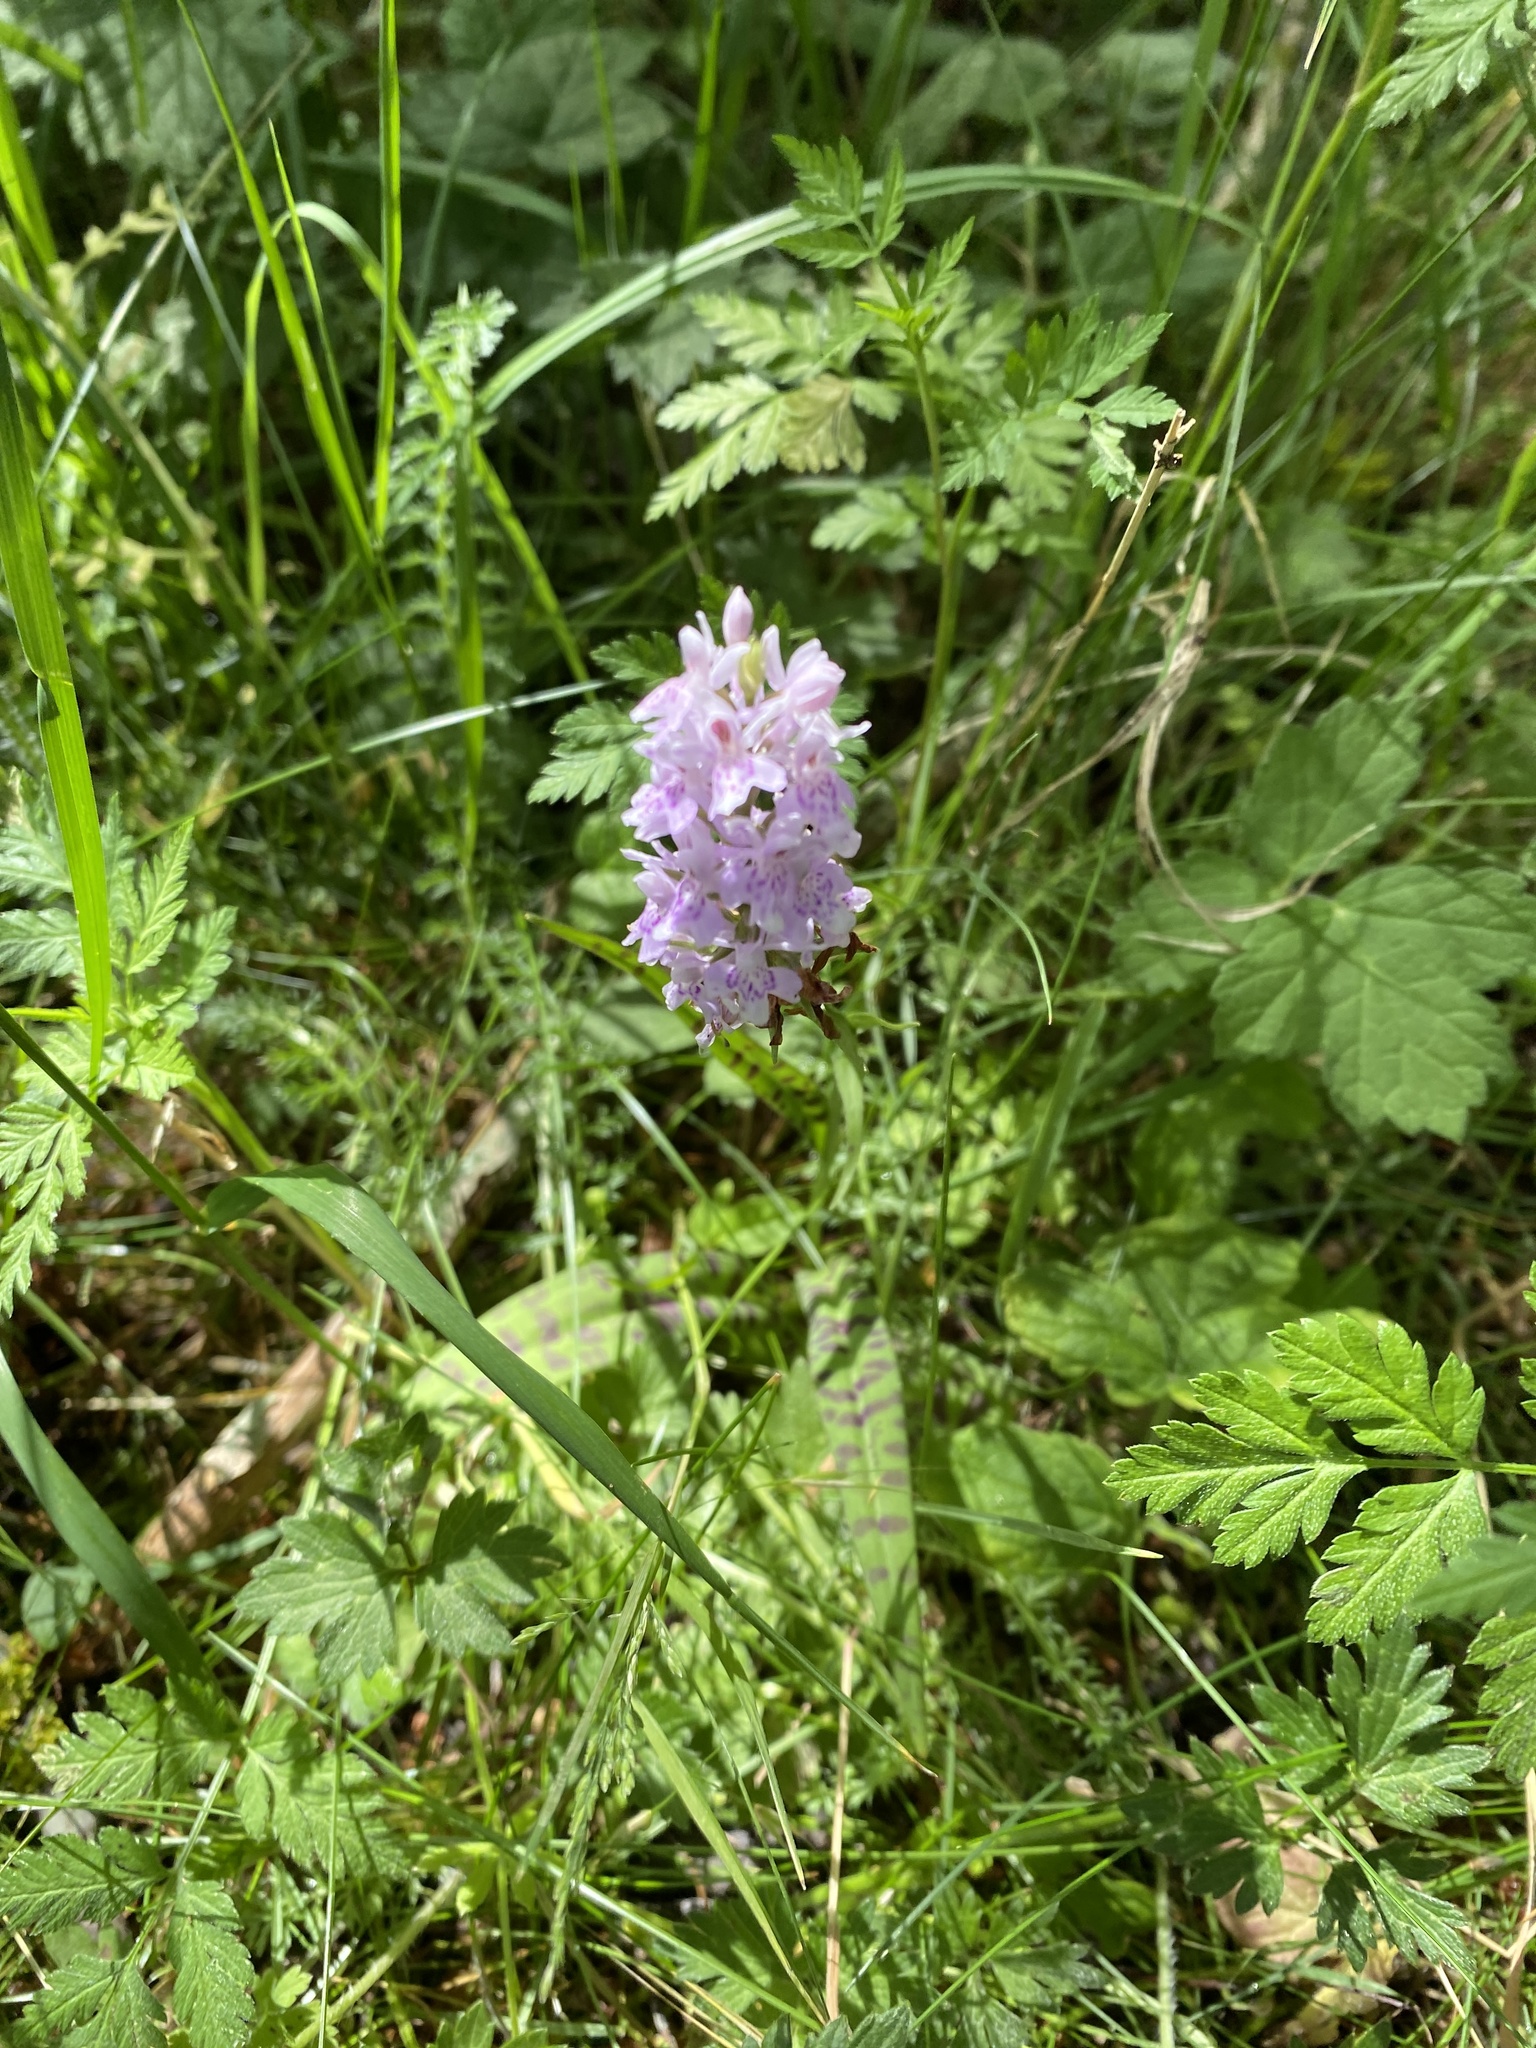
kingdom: Plantae
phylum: Tracheophyta
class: Liliopsida
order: Asparagales
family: Orchidaceae
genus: Dactylorhiza
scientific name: Dactylorhiza maculata
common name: Heath spotted-orchid
